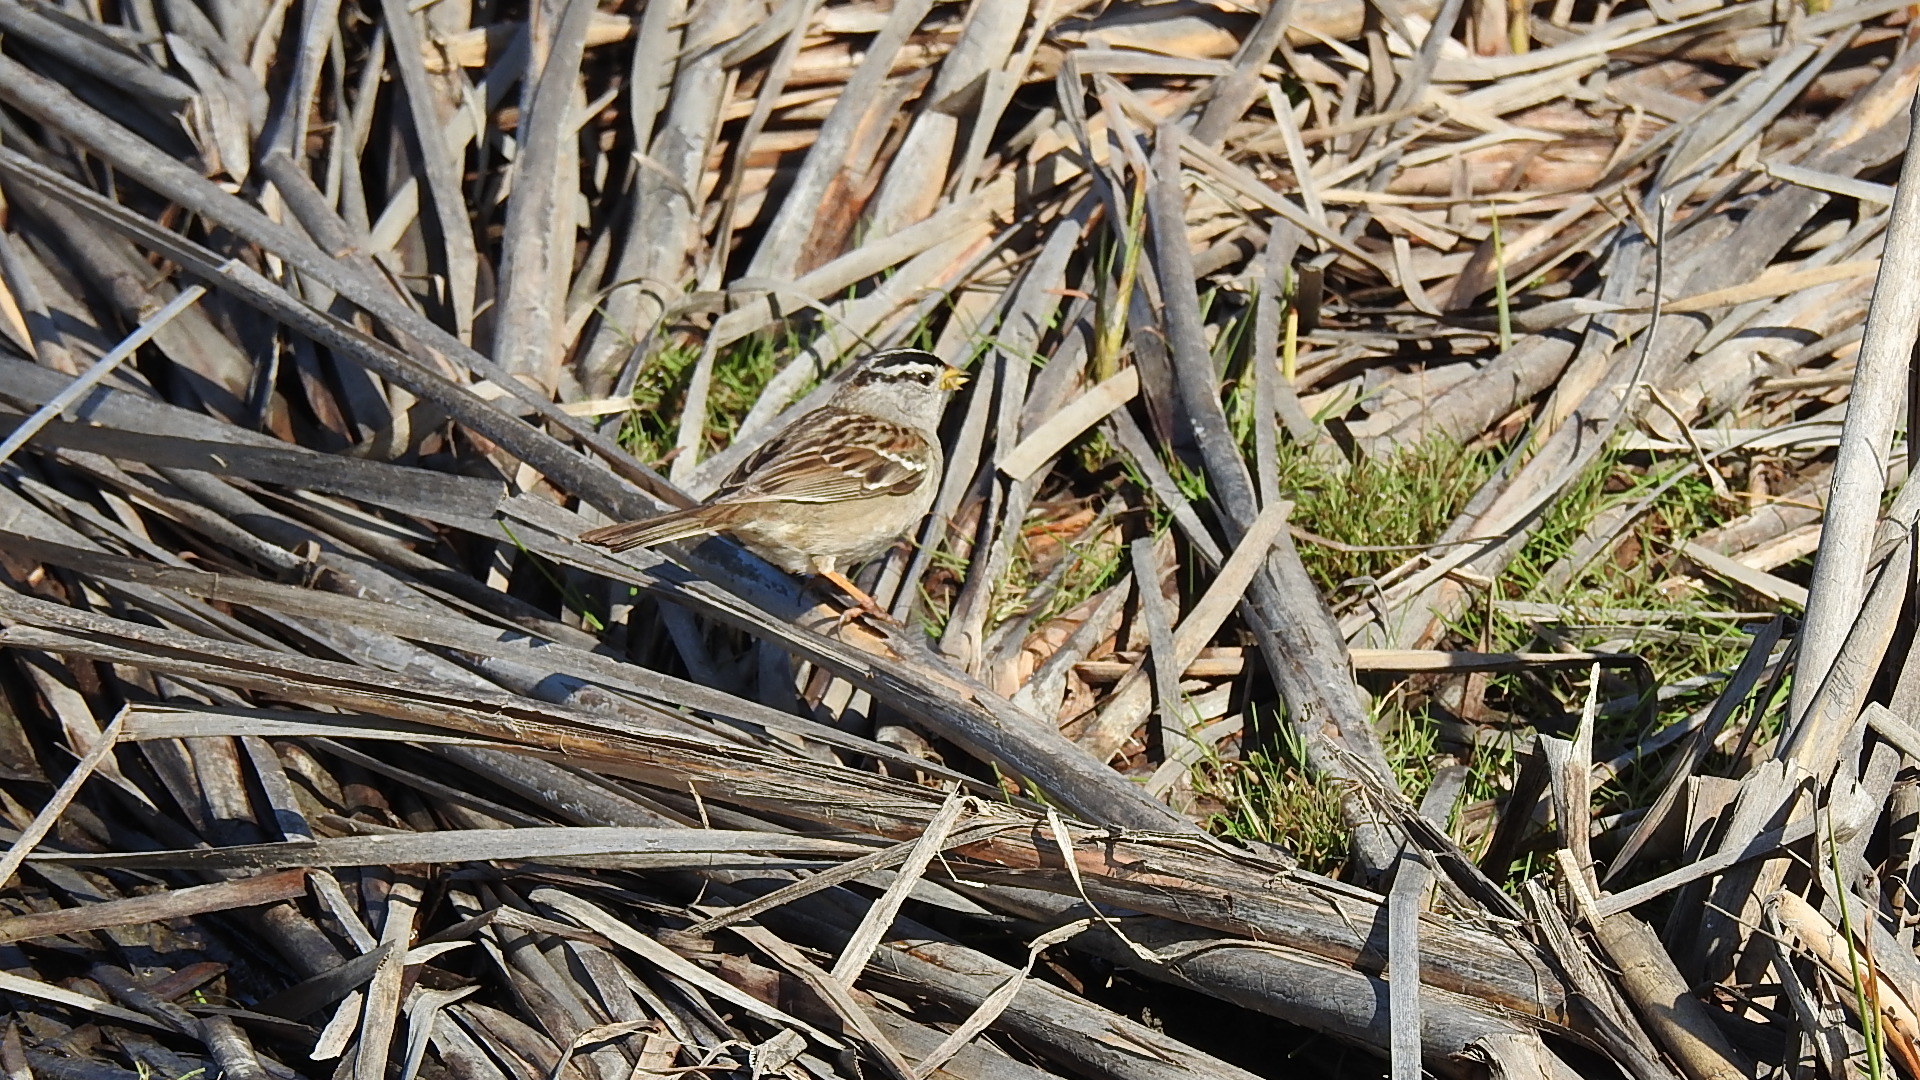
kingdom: Animalia
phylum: Chordata
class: Aves
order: Passeriformes
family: Passerellidae
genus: Zonotrichia
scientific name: Zonotrichia leucophrys
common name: White-crowned sparrow
